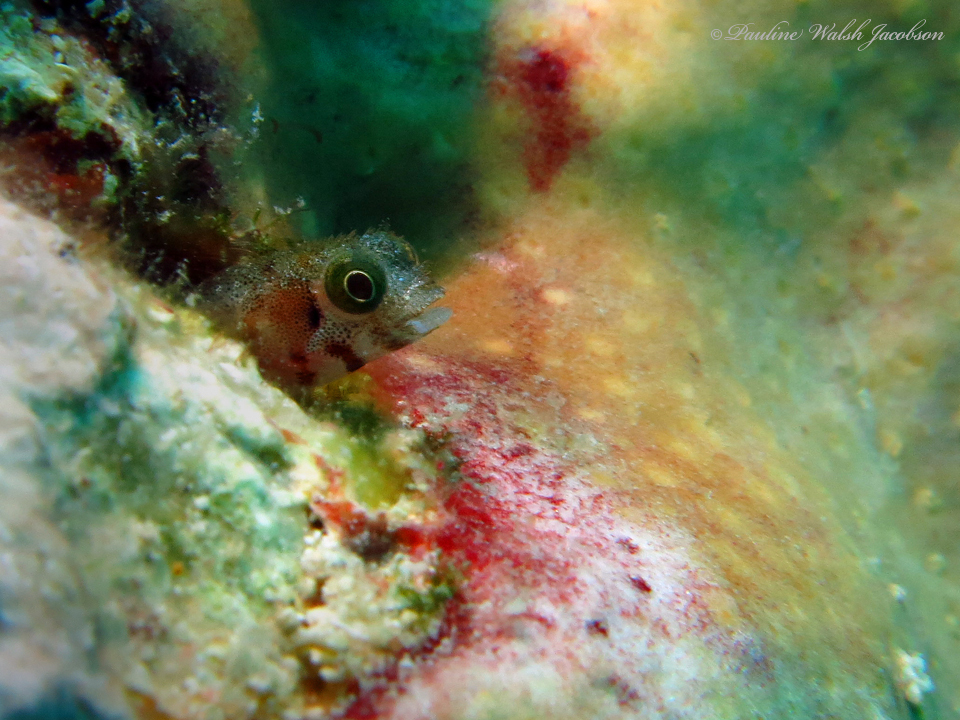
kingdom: Animalia
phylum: Chordata
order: Perciformes
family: Chaenopsidae
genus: Acanthemblemaria
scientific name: Acanthemblemaria spinosa
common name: Spinyhead blenny
